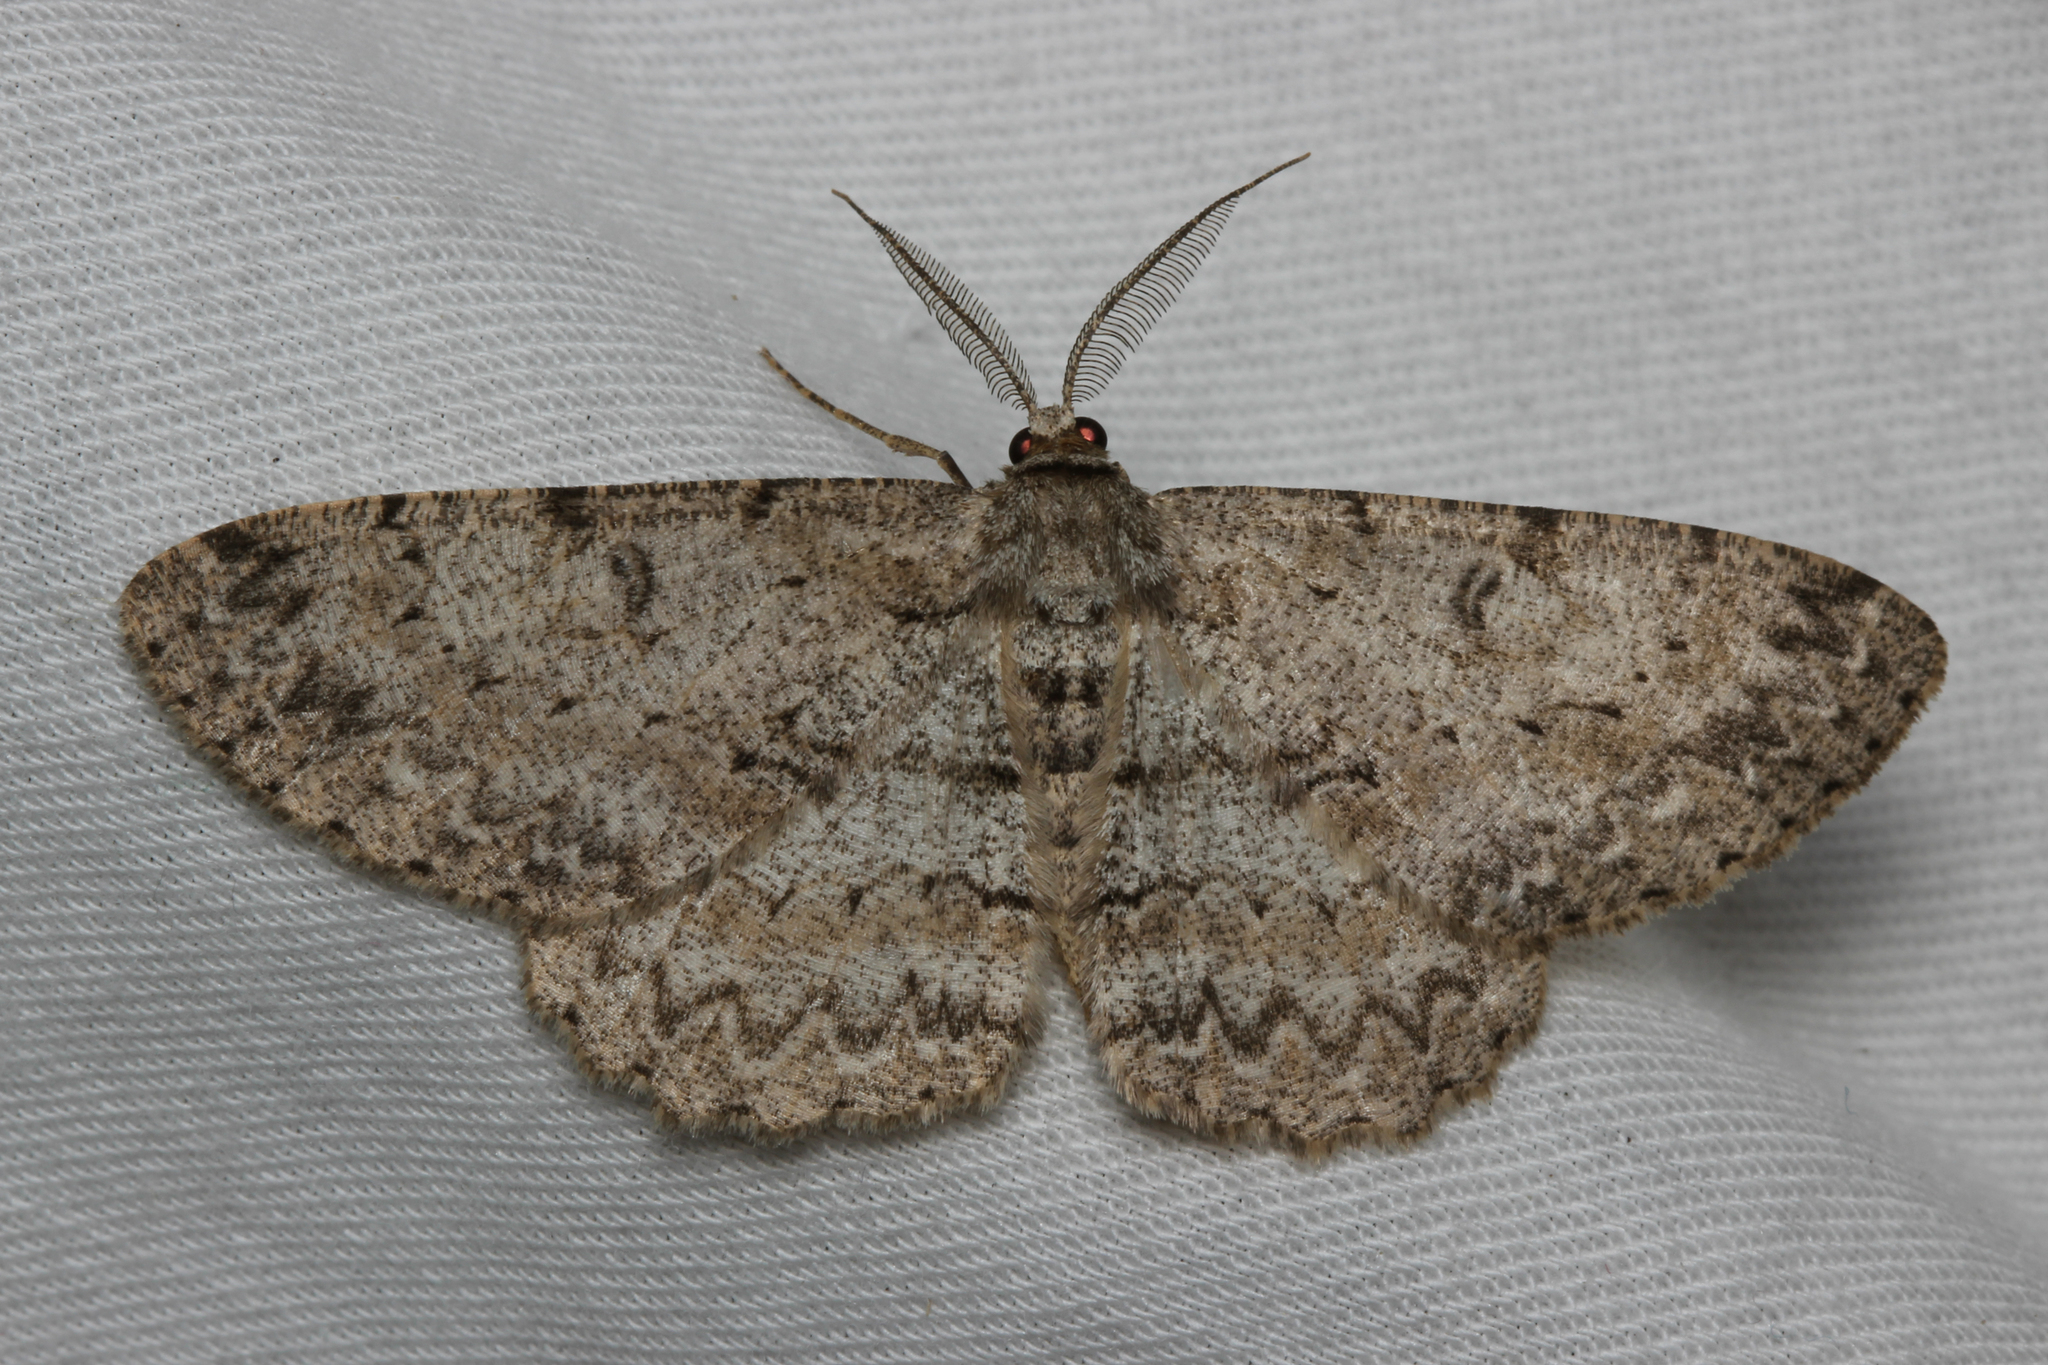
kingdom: Animalia
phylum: Arthropoda
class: Insecta
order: Lepidoptera
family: Geometridae
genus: Hypomecis
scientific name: Hypomecis punctinalis
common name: Pale oak beauty
